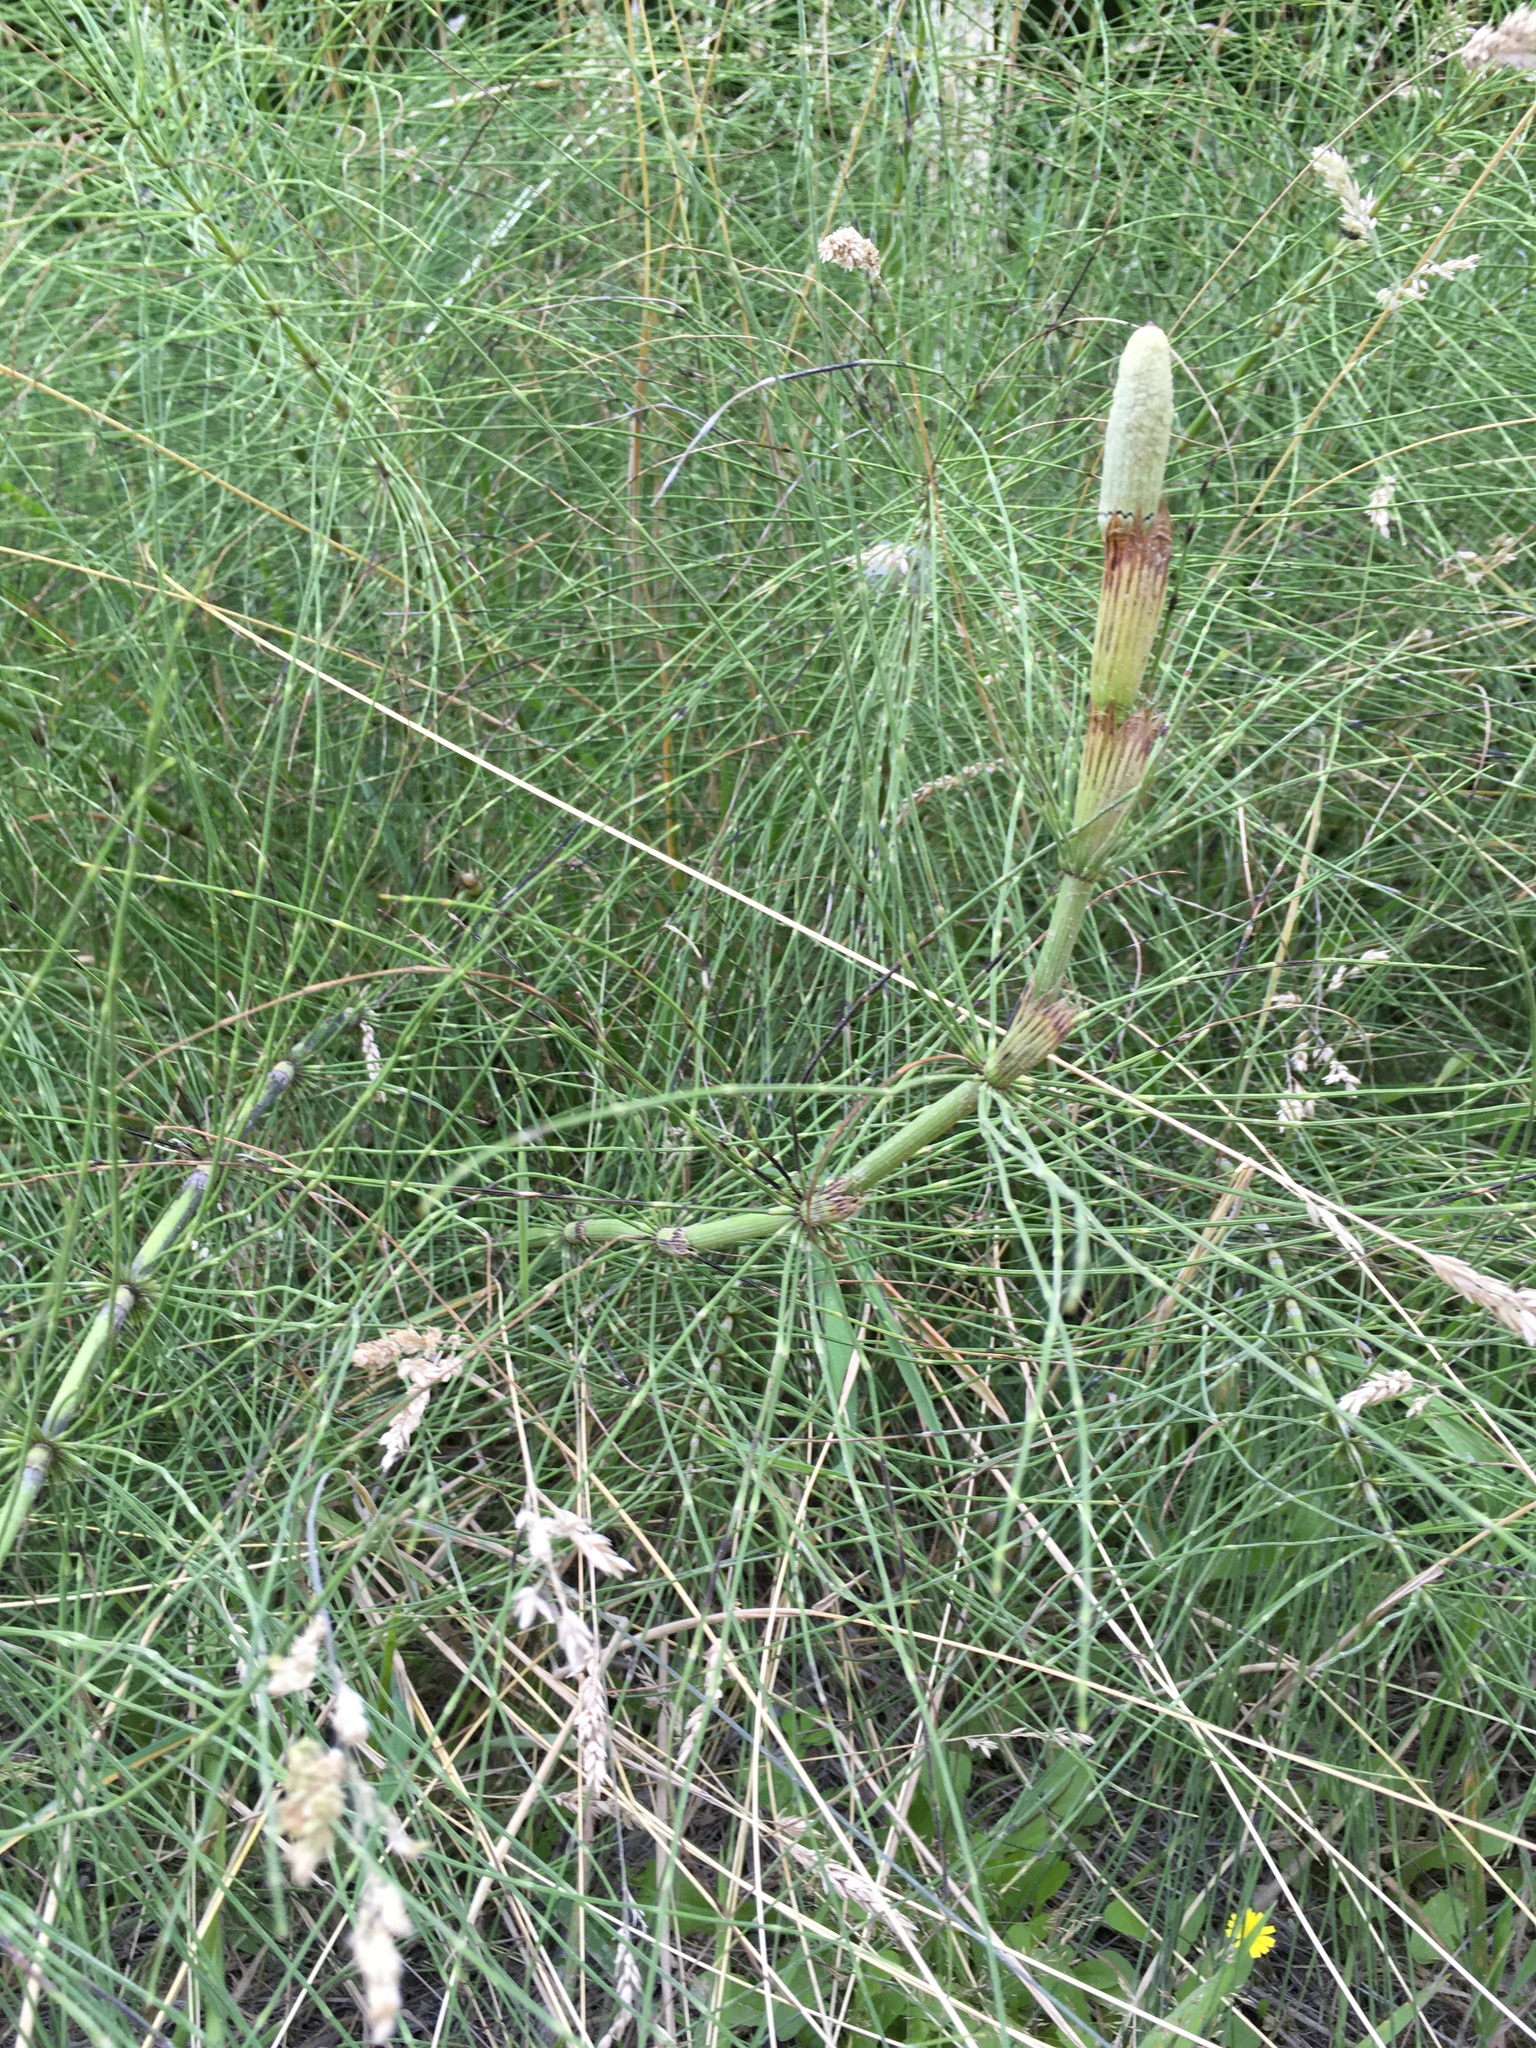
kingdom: Plantae
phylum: Tracheophyta
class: Polypodiopsida
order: Equisetales
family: Equisetaceae
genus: Equisetum
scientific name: Equisetum braunii
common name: Braun's horsetail
